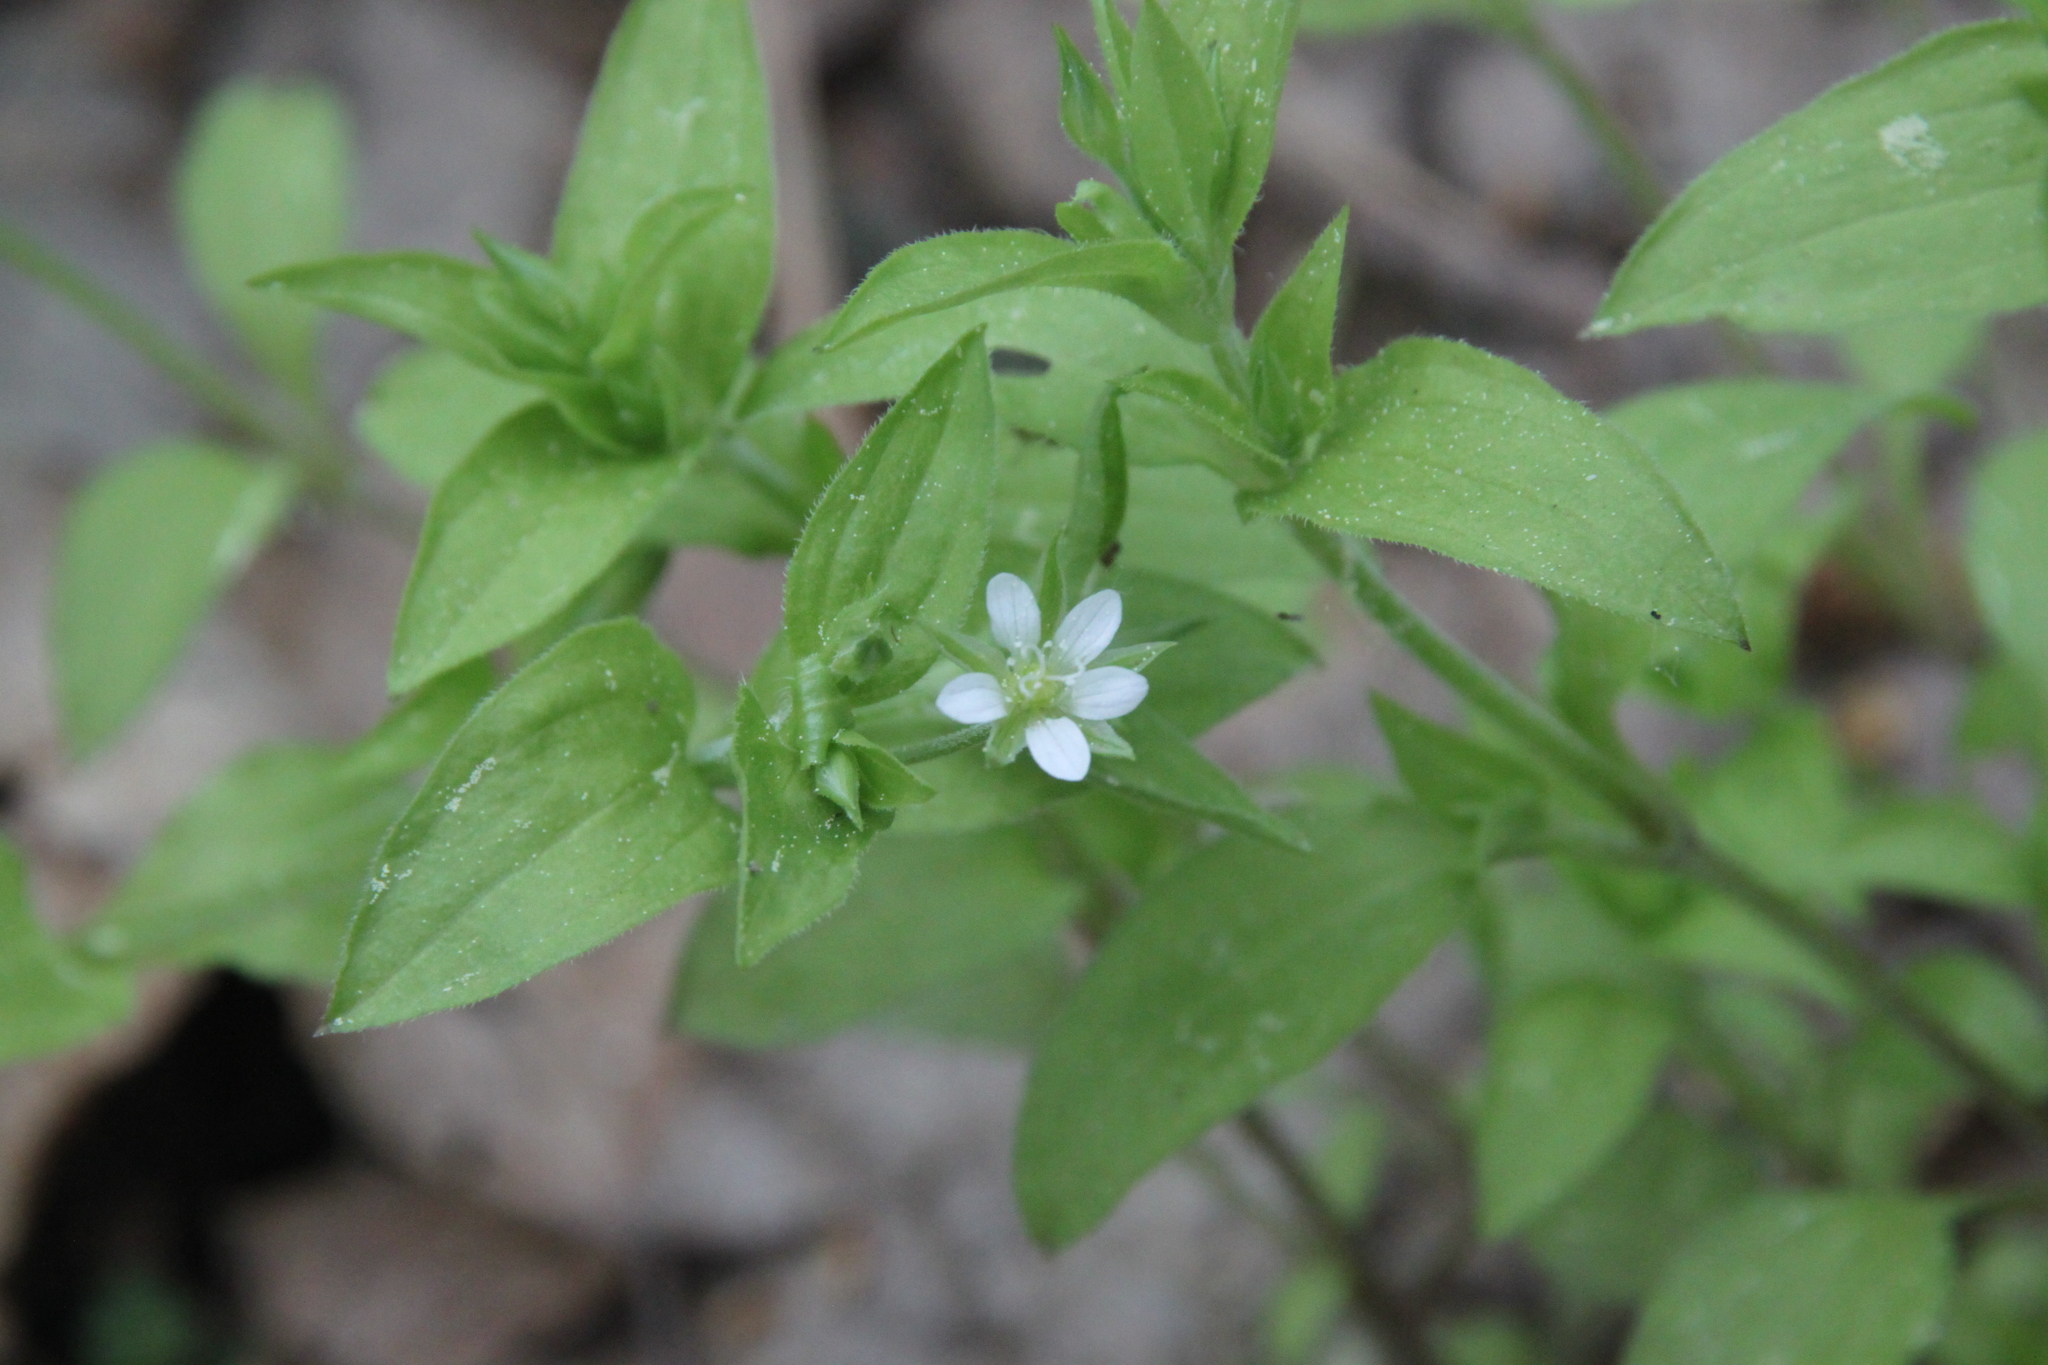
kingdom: Plantae
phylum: Tracheophyta
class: Magnoliopsida
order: Caryophyllales
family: Caryophyllaceae
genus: Moehringia
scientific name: Moehringia trinervia
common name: Three-nerved sandwort
